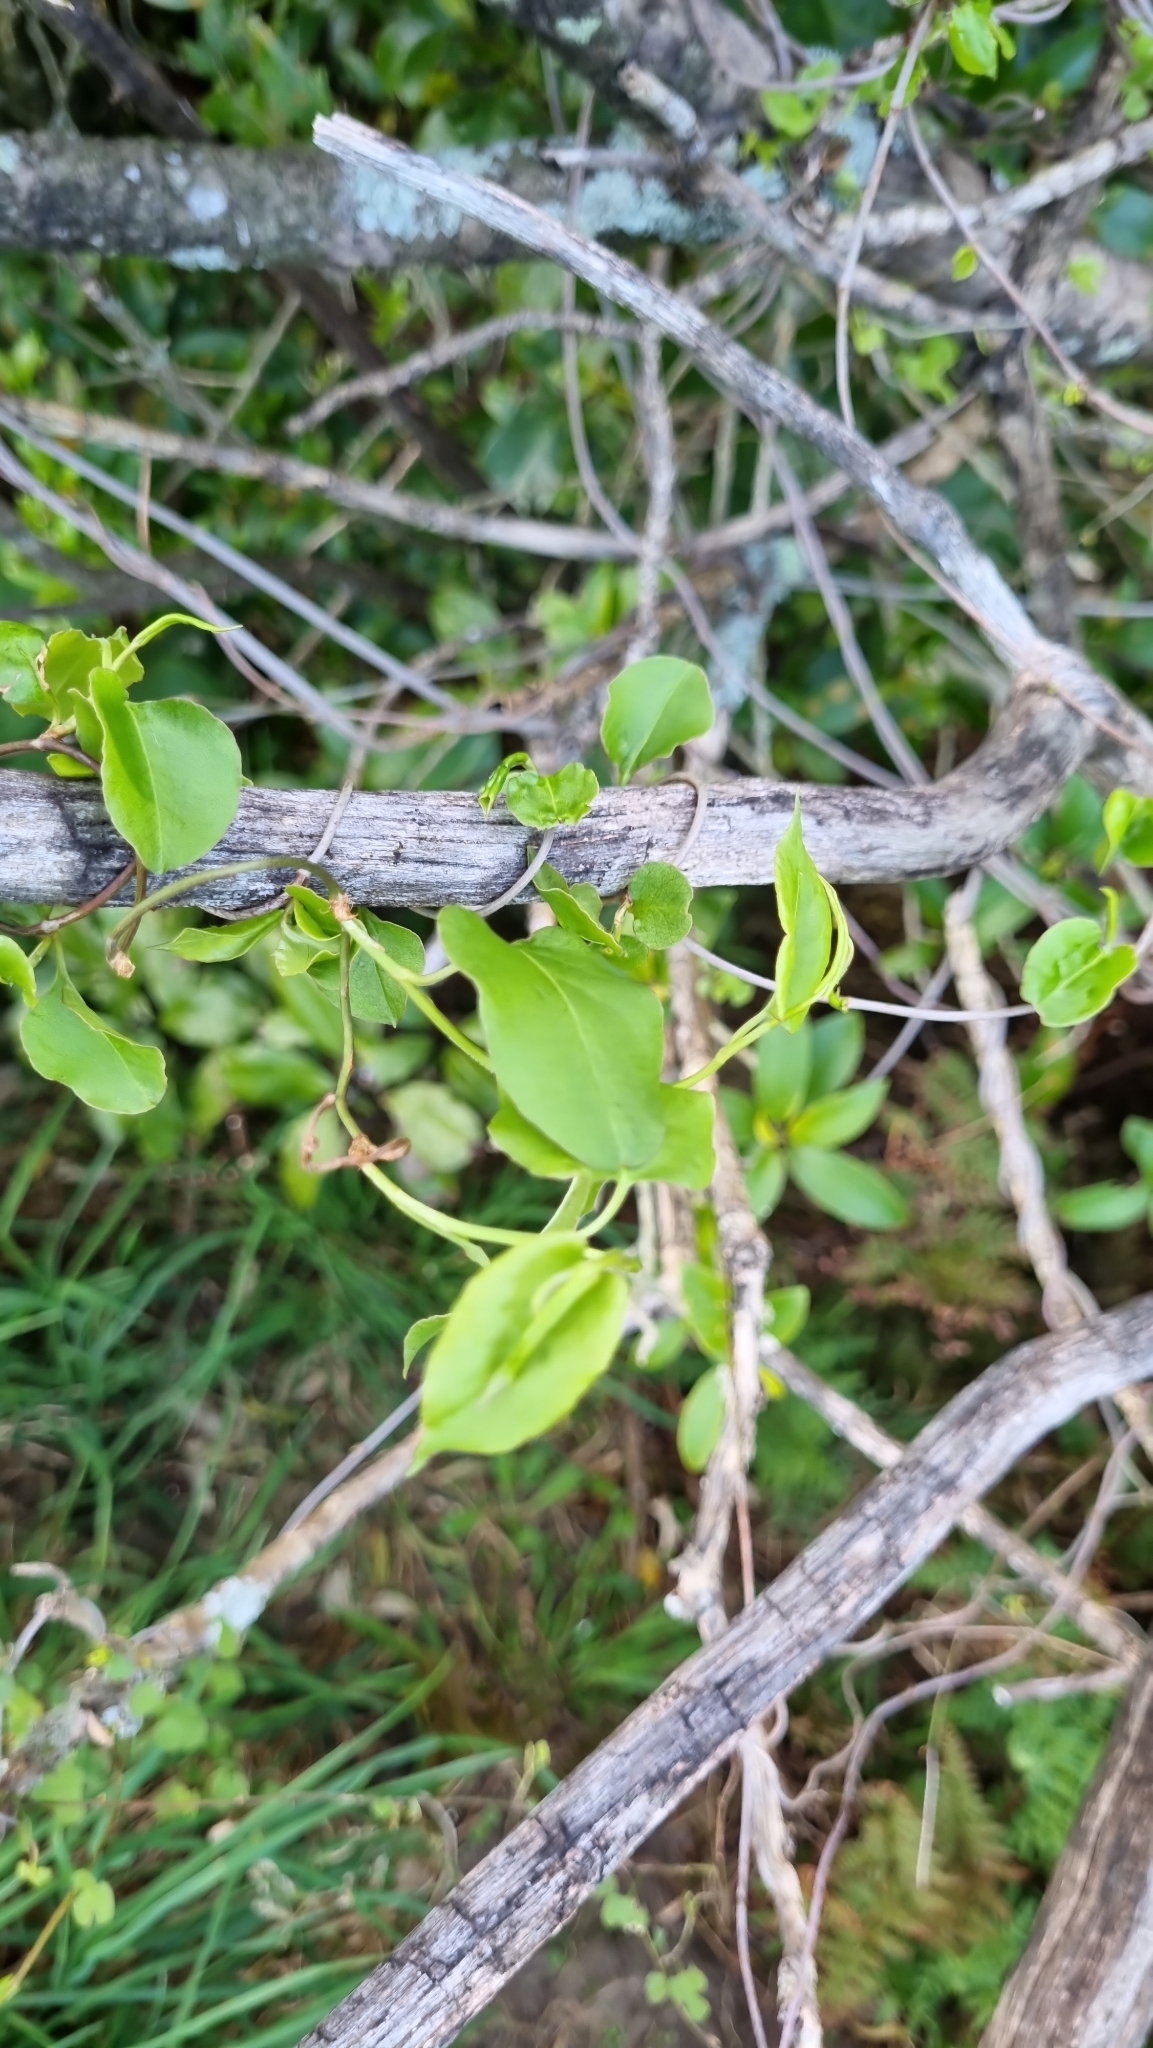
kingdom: Plantae
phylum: Tracheophyta
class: Magnoliopsida
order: Caryophyllales
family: Polygonaceae
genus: Muehlenbeckia
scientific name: Muehlenbeckia australis
